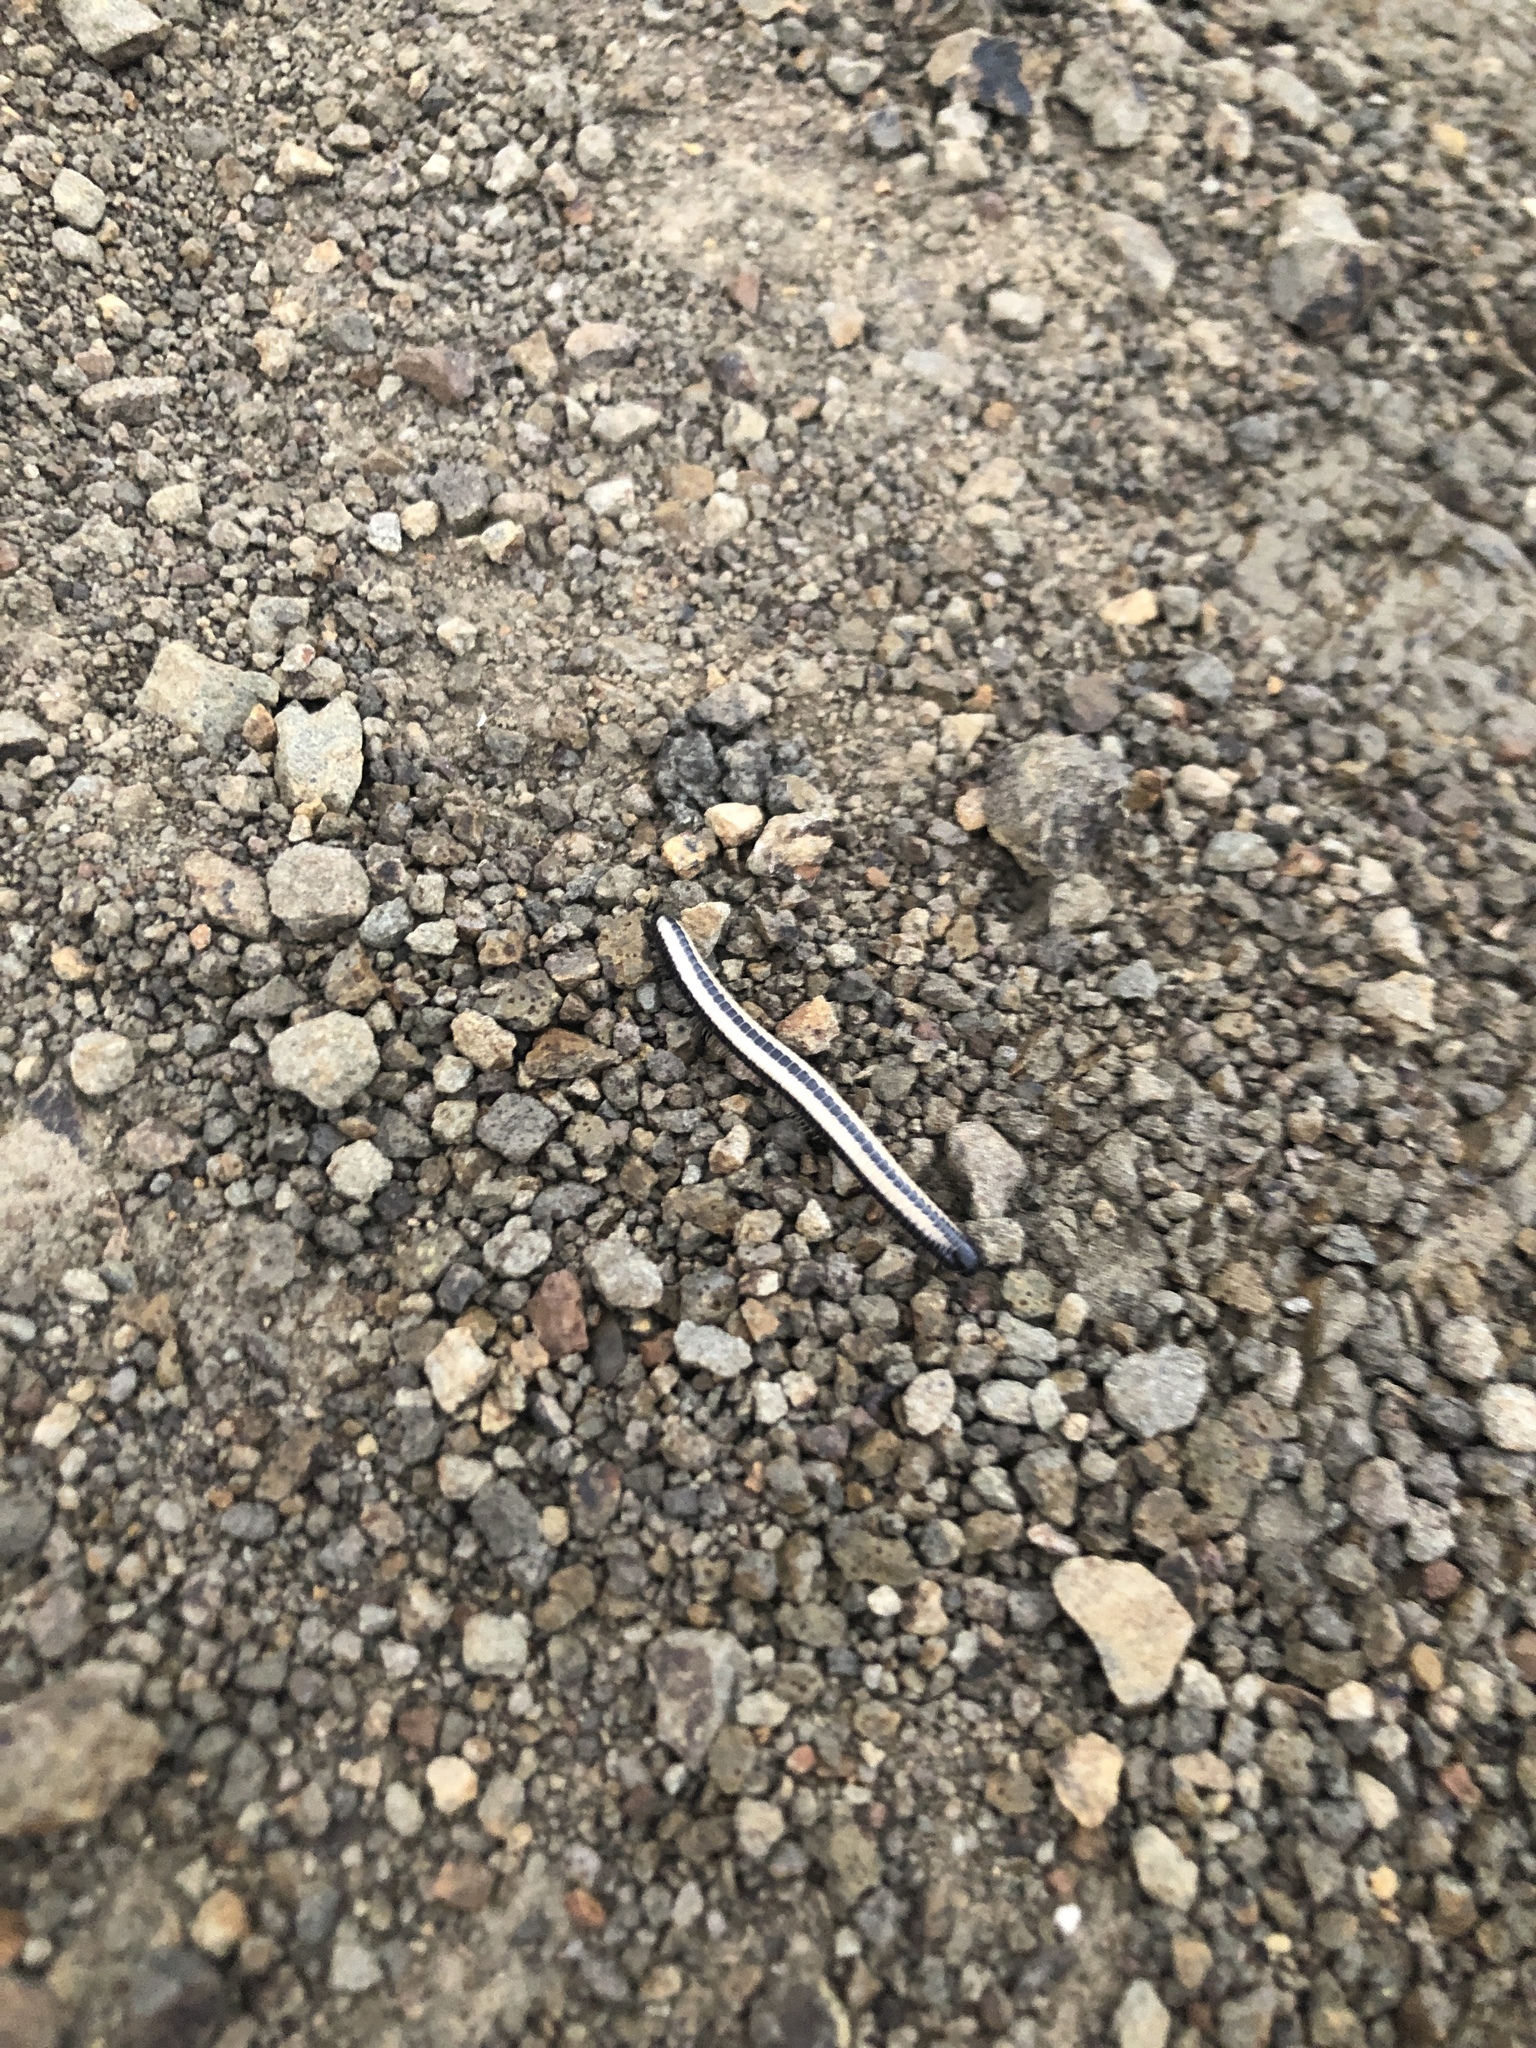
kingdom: Animalia
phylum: Arthropoda
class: Diplopoda
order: Spirobolida
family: Spirobolellidae
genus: Spirobolellus
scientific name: Spirobolellus immigrans
